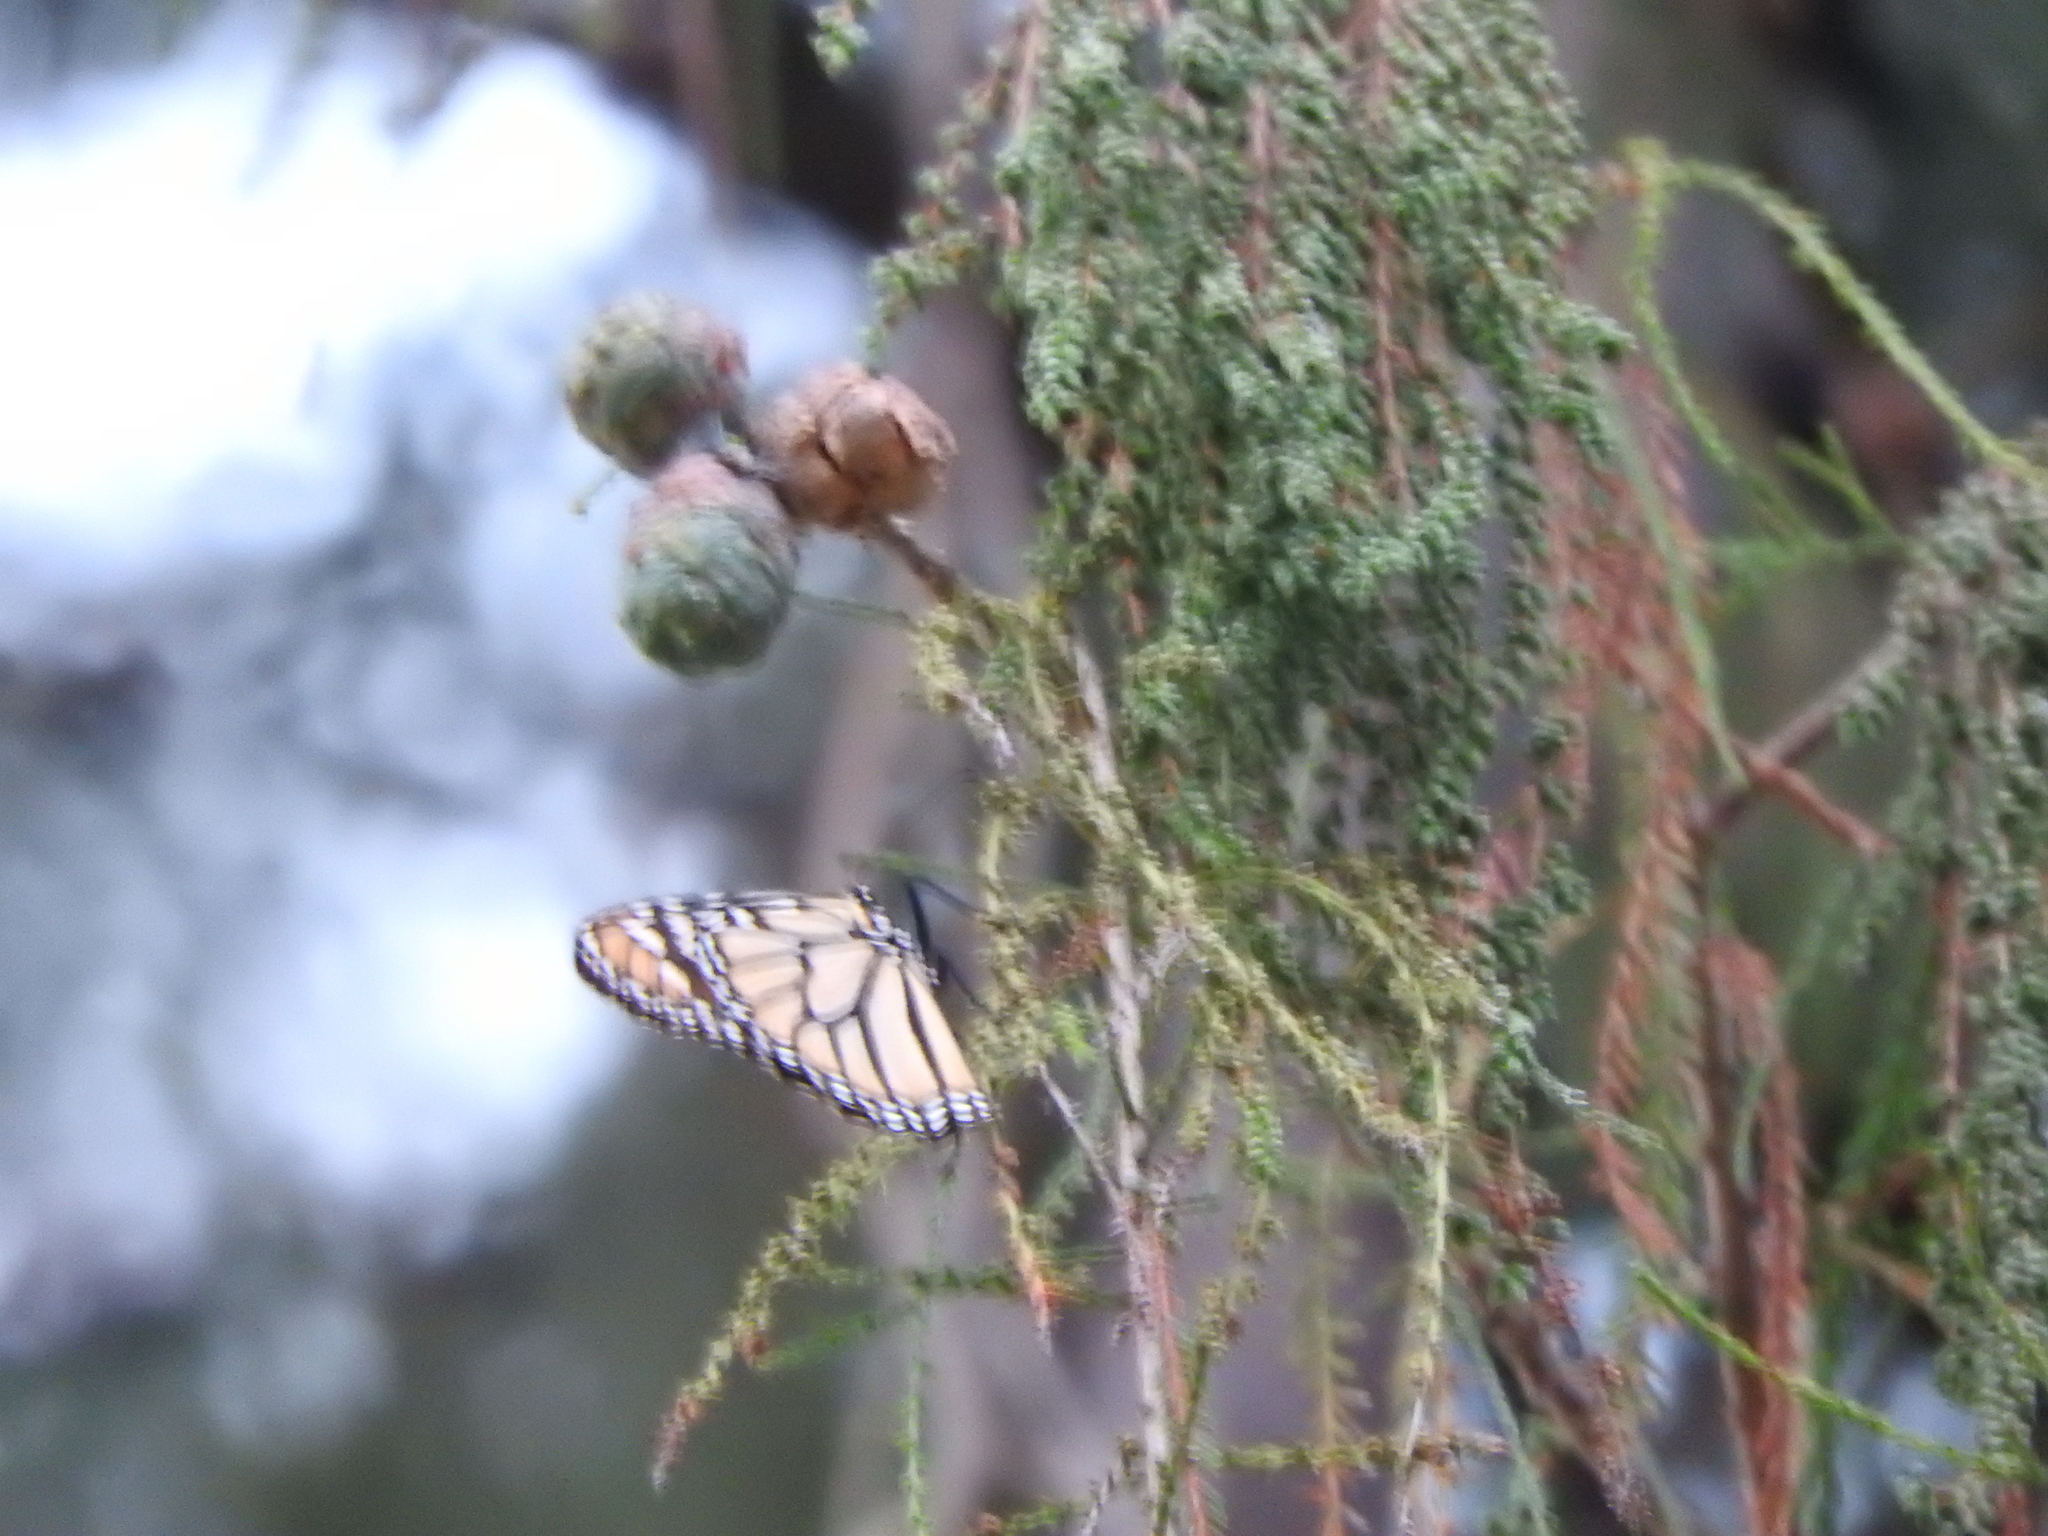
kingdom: Animalia
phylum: Arthropoda
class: Insecta
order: Lepidoptera
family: Nymphalidae
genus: Danaus
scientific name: Danaus plexippus
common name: Monarch
